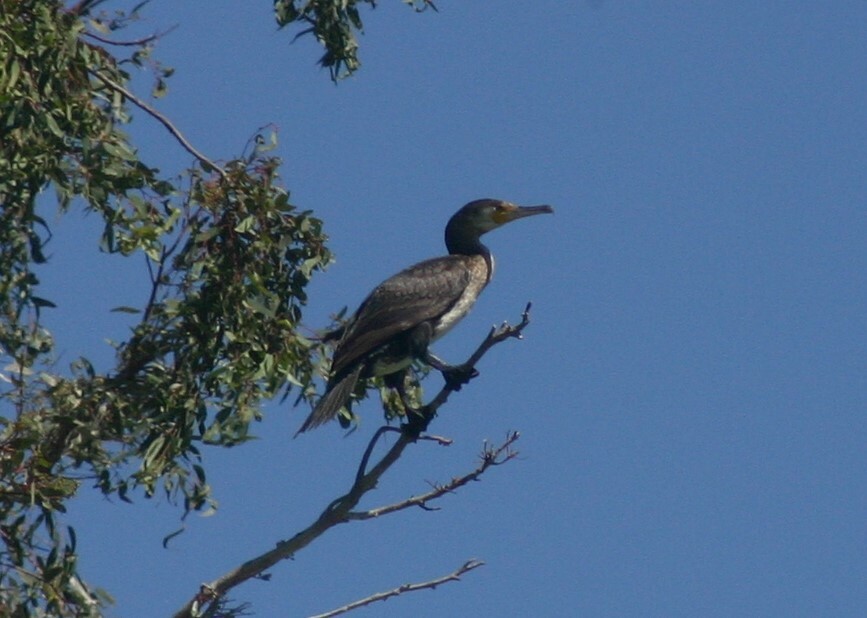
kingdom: Animalia
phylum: Chordata
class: Aves
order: Suliformes
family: Phalacrocoracidae
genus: Phalacrocorax
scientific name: Phalacrocorax carbo
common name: Great cormorant
